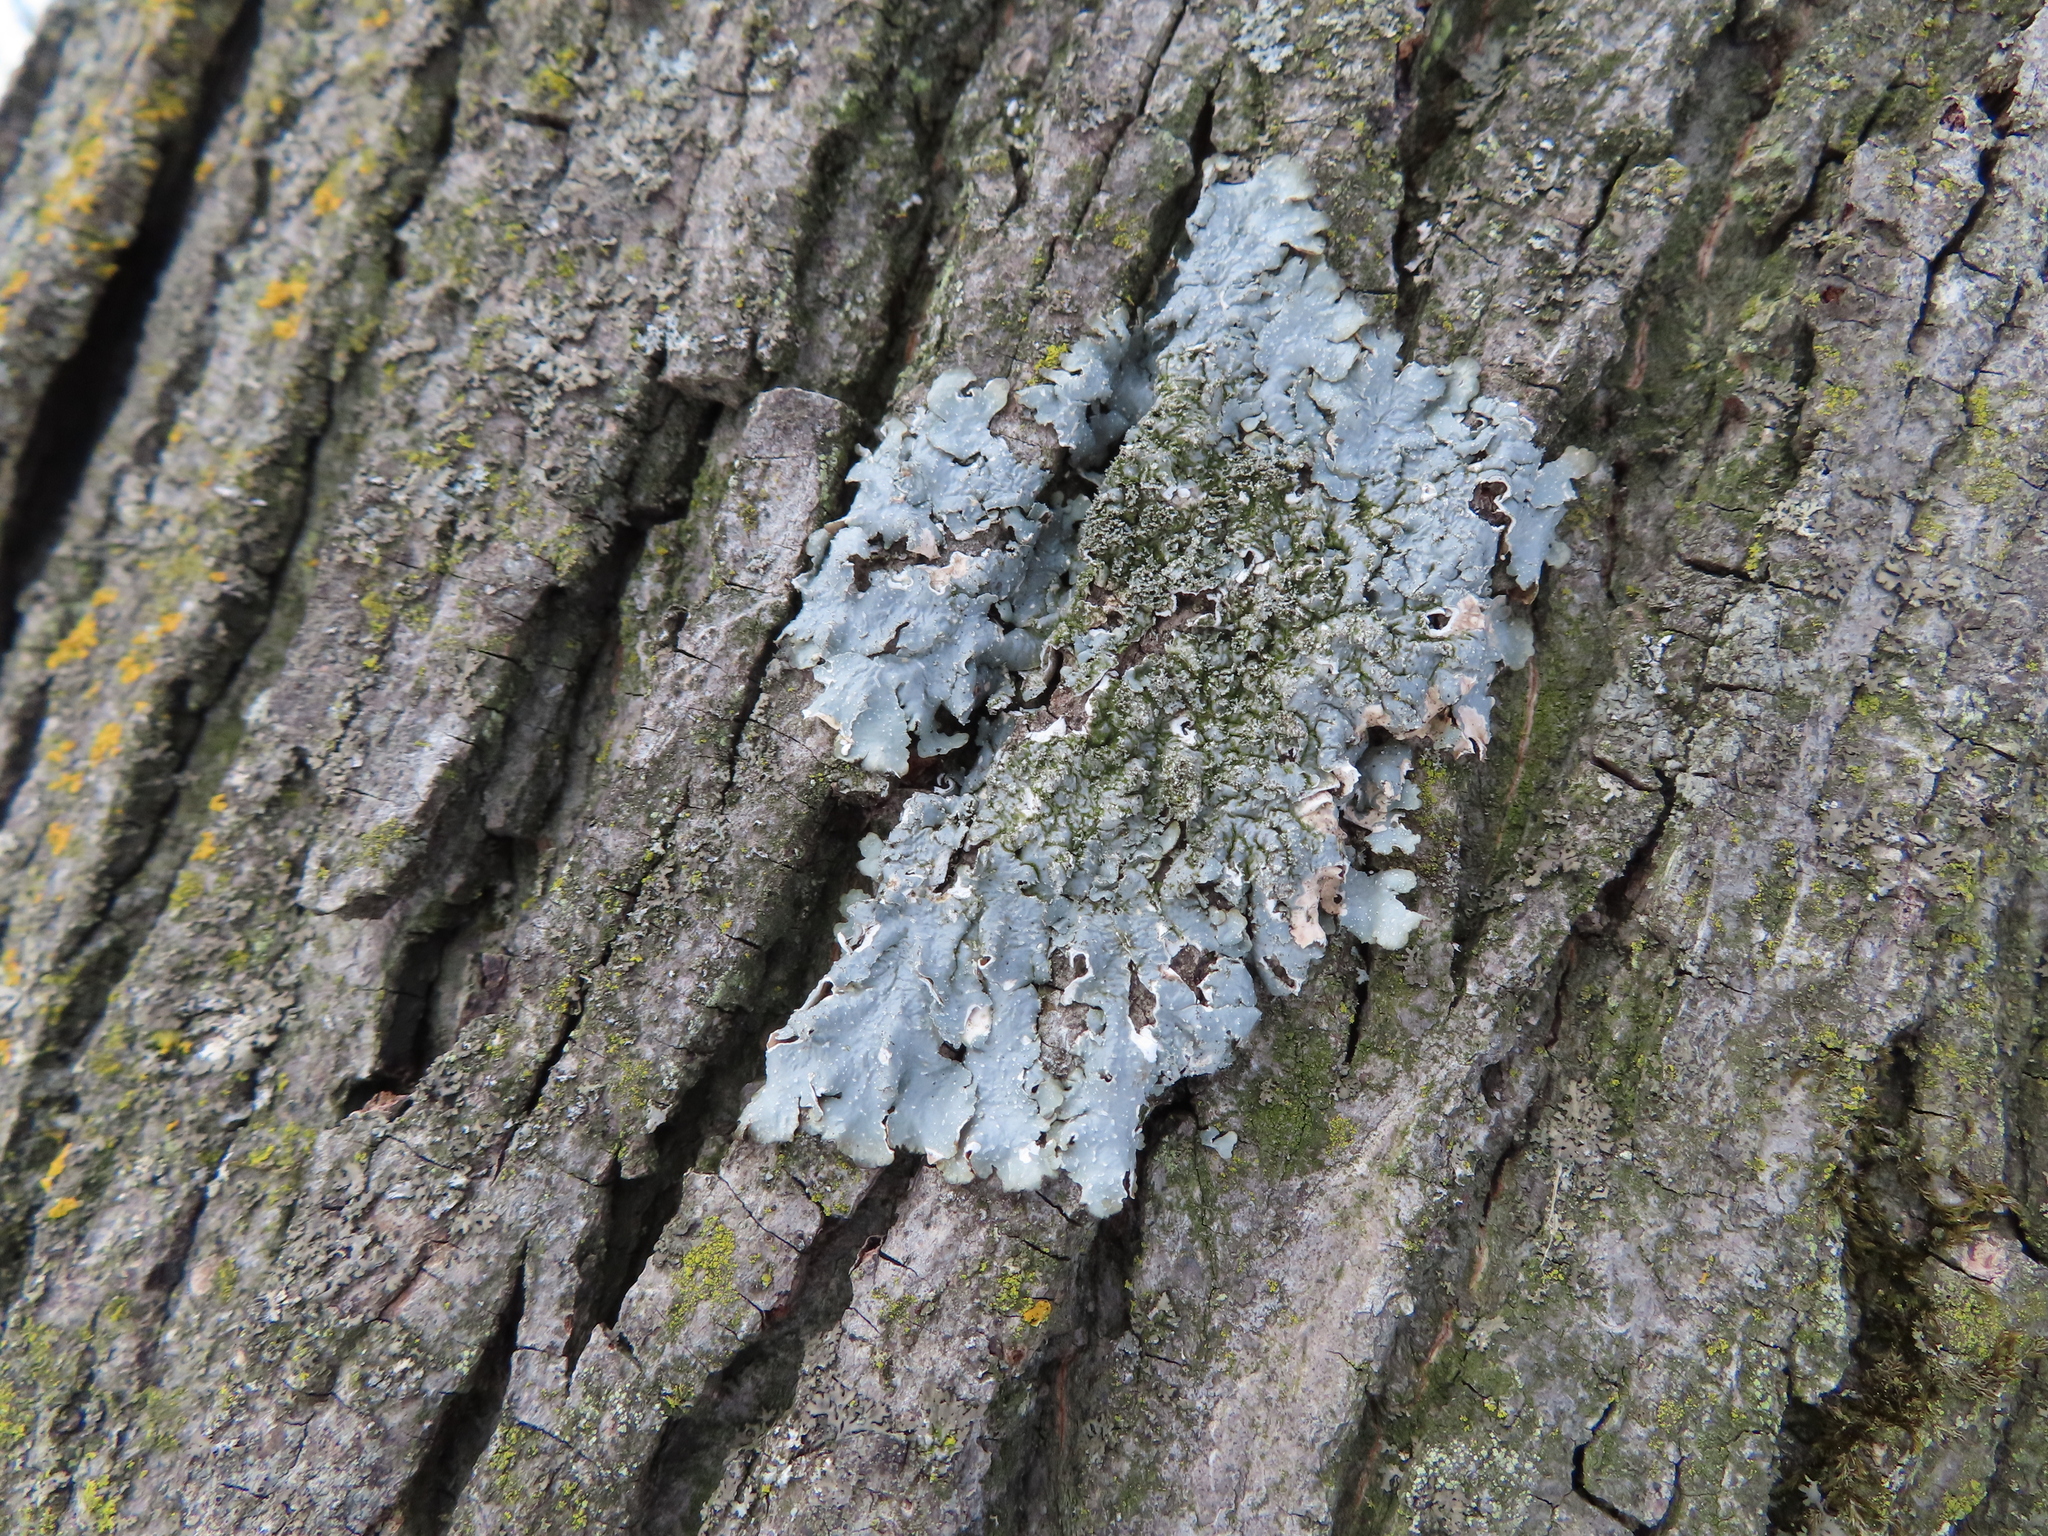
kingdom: Fungi
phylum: Ascomycota
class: Lecanoromycetes
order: Lecanorales
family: Parmeliaceae
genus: Punctelia
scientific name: Punctelia rudecta
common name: Rough speckled shield lichen
